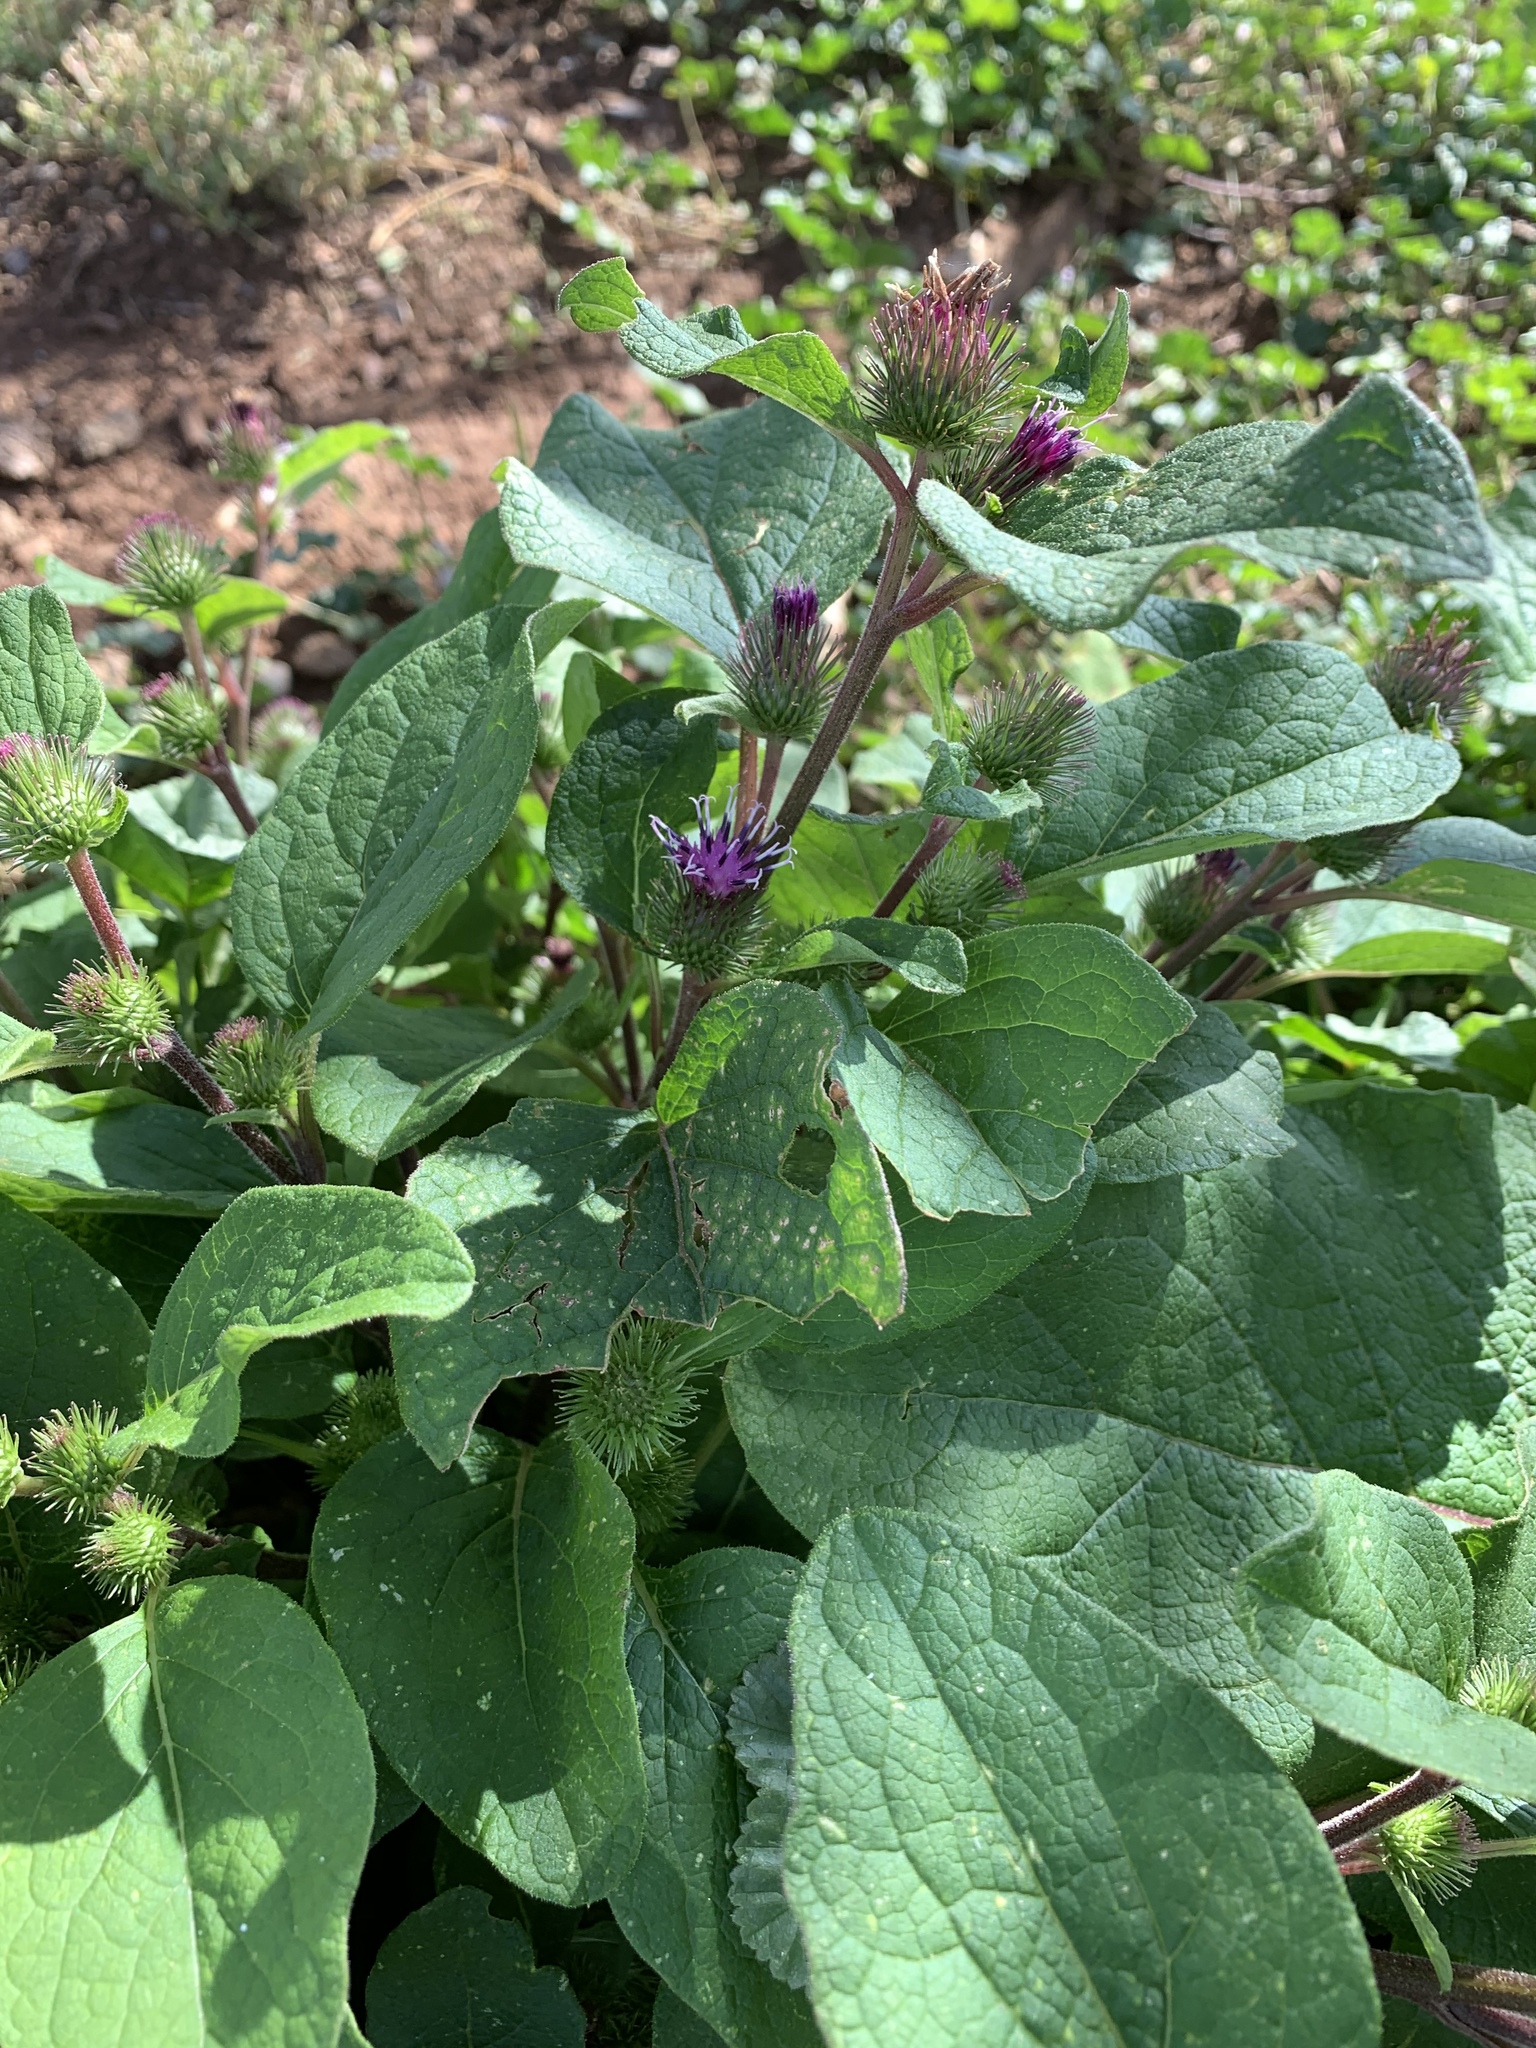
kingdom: Plantae
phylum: Tracheophyta
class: Magnoliopsida
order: Asterales
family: Asteraceae
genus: Arctium
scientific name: Arctium lappa
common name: Greater burdock
